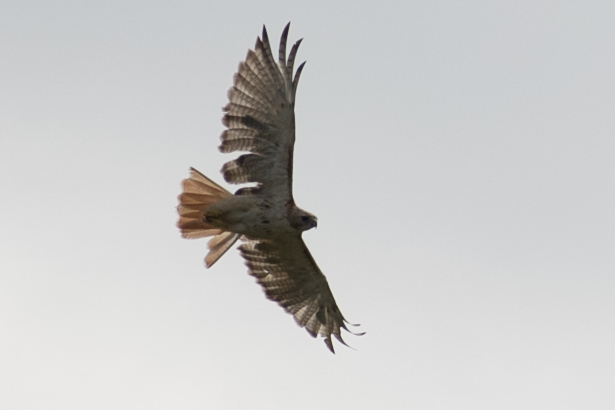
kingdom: Animalia
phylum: Chordata
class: Aves
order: Accipitriformes
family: Accipitridae
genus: Buteo
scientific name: Buteo jamaicensis
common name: Red-tailed hawk
